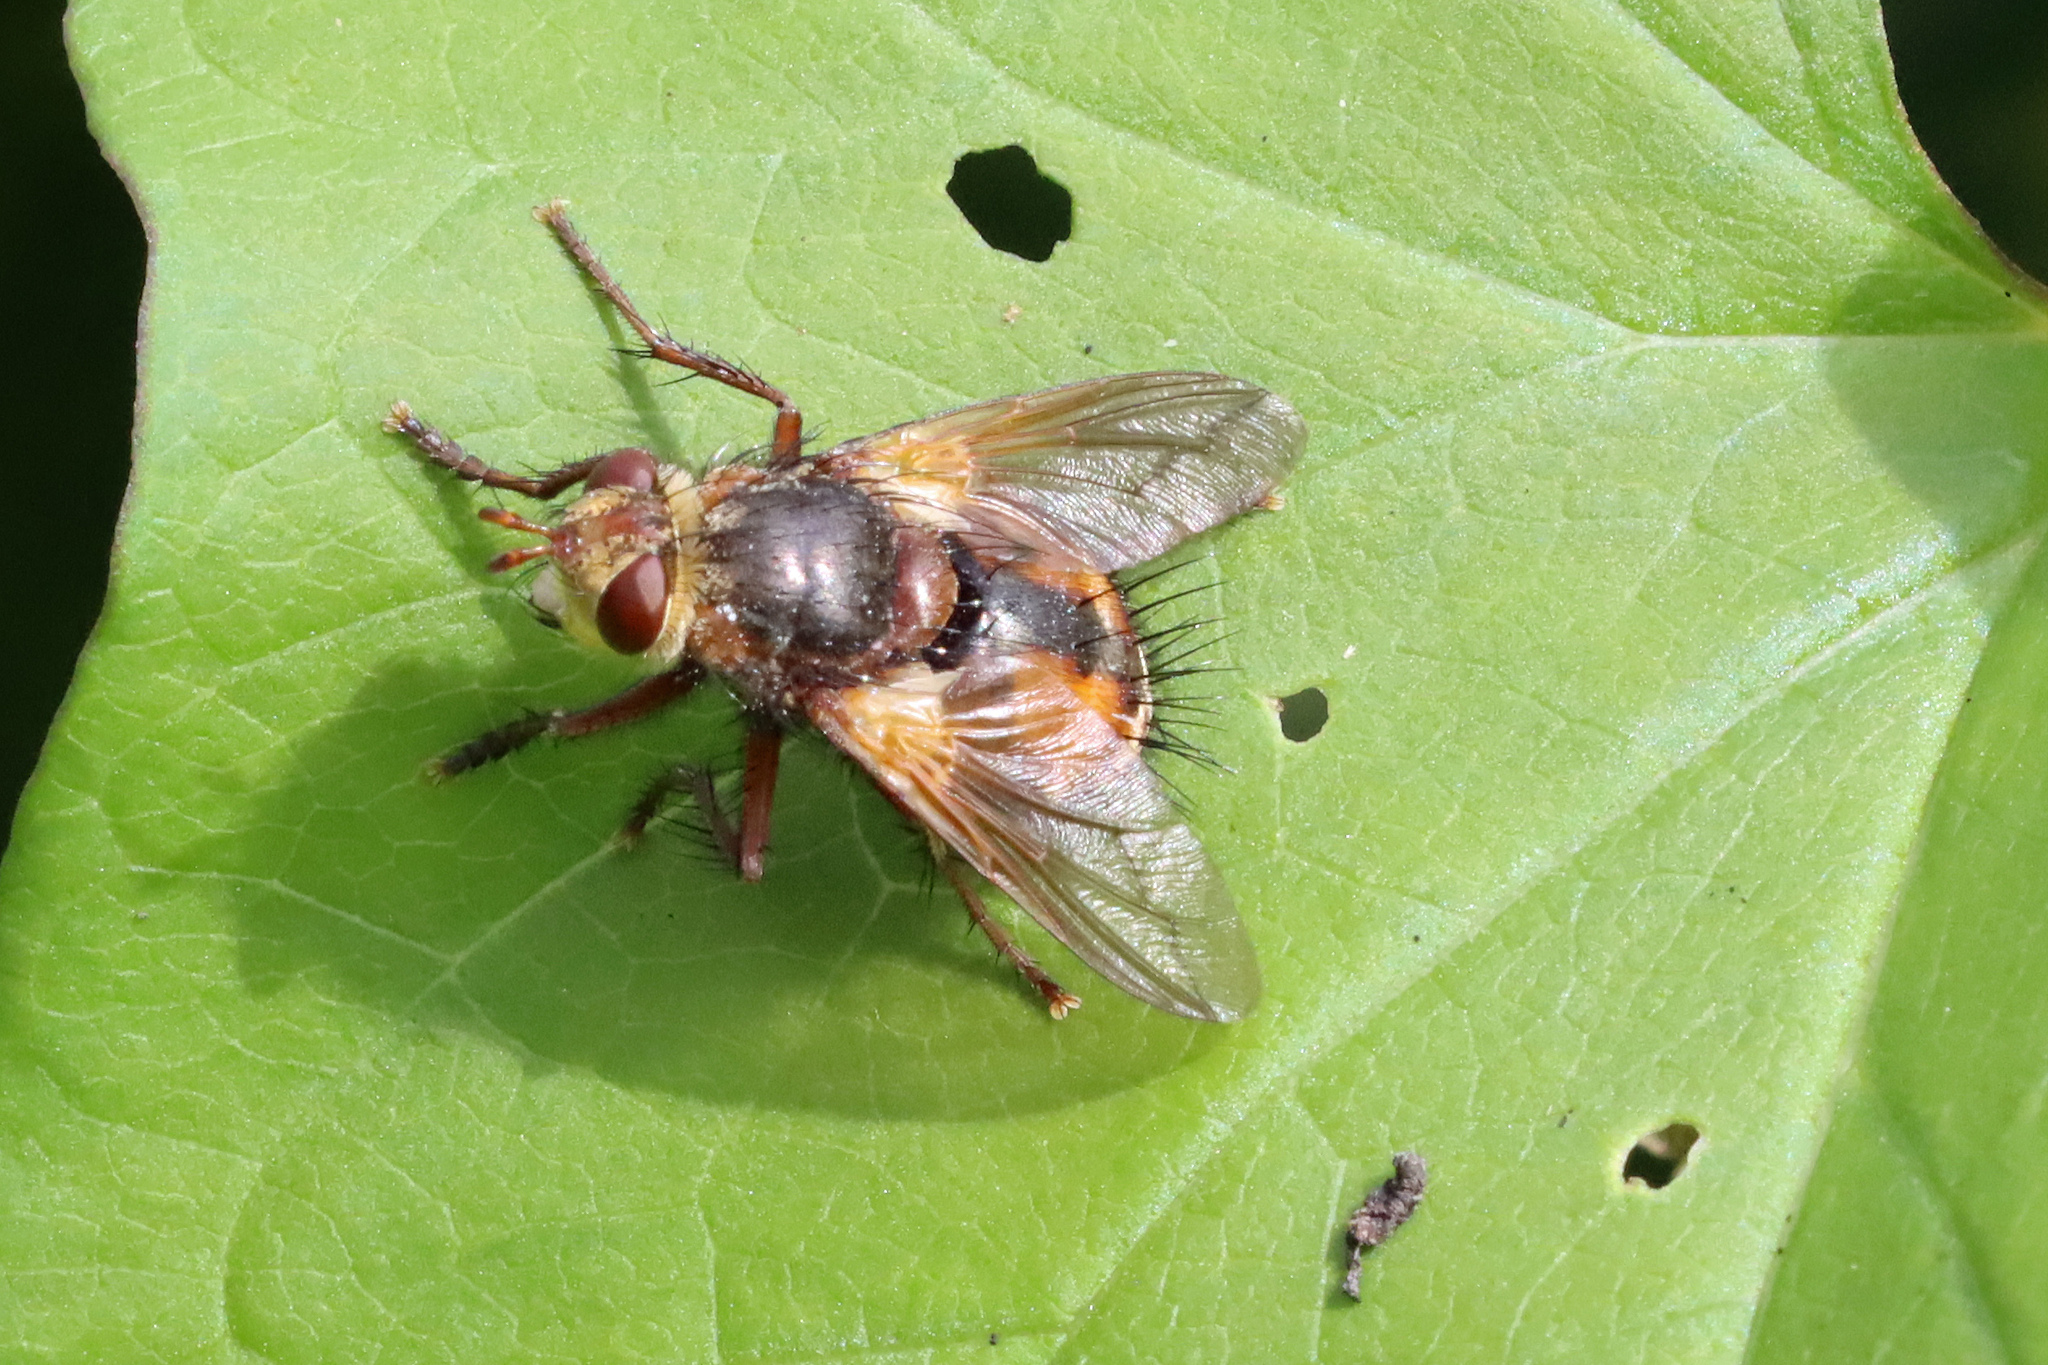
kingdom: Animalia
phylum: Arthropoda
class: Insecta
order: Diptera
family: Tachinidae
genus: Tachina
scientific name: Tachina fera
